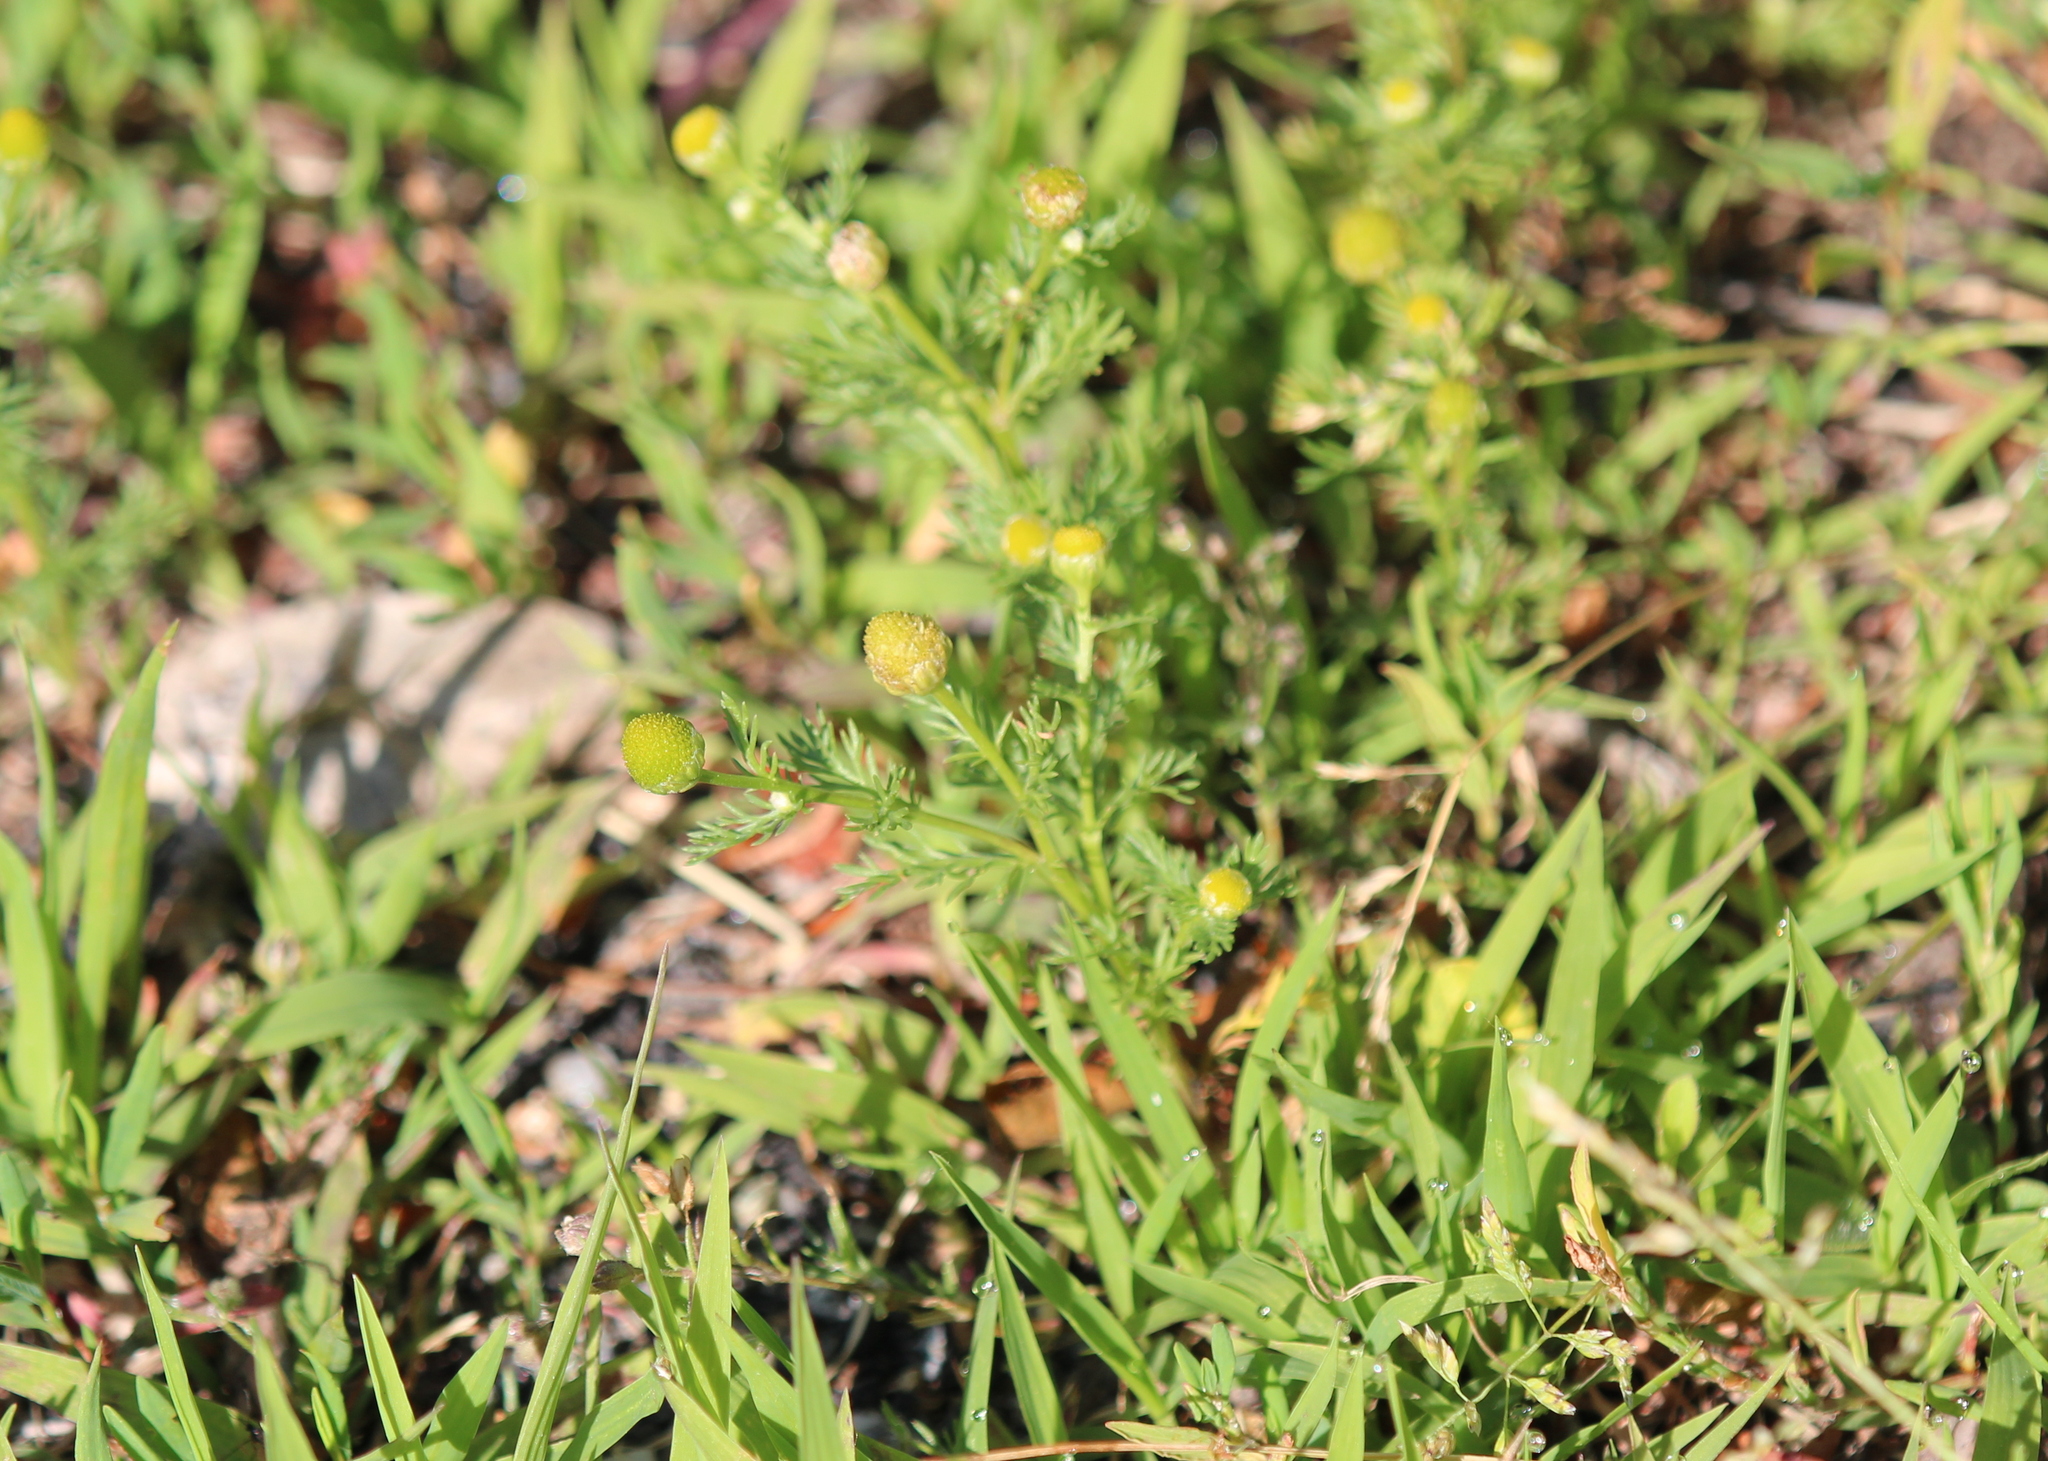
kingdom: Plantae
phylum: Tracheophyta
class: Magnoliopsida
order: Asterales
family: Asteraceae
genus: Matricaria
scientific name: Matricaria discoidea
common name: Disc mayweed
